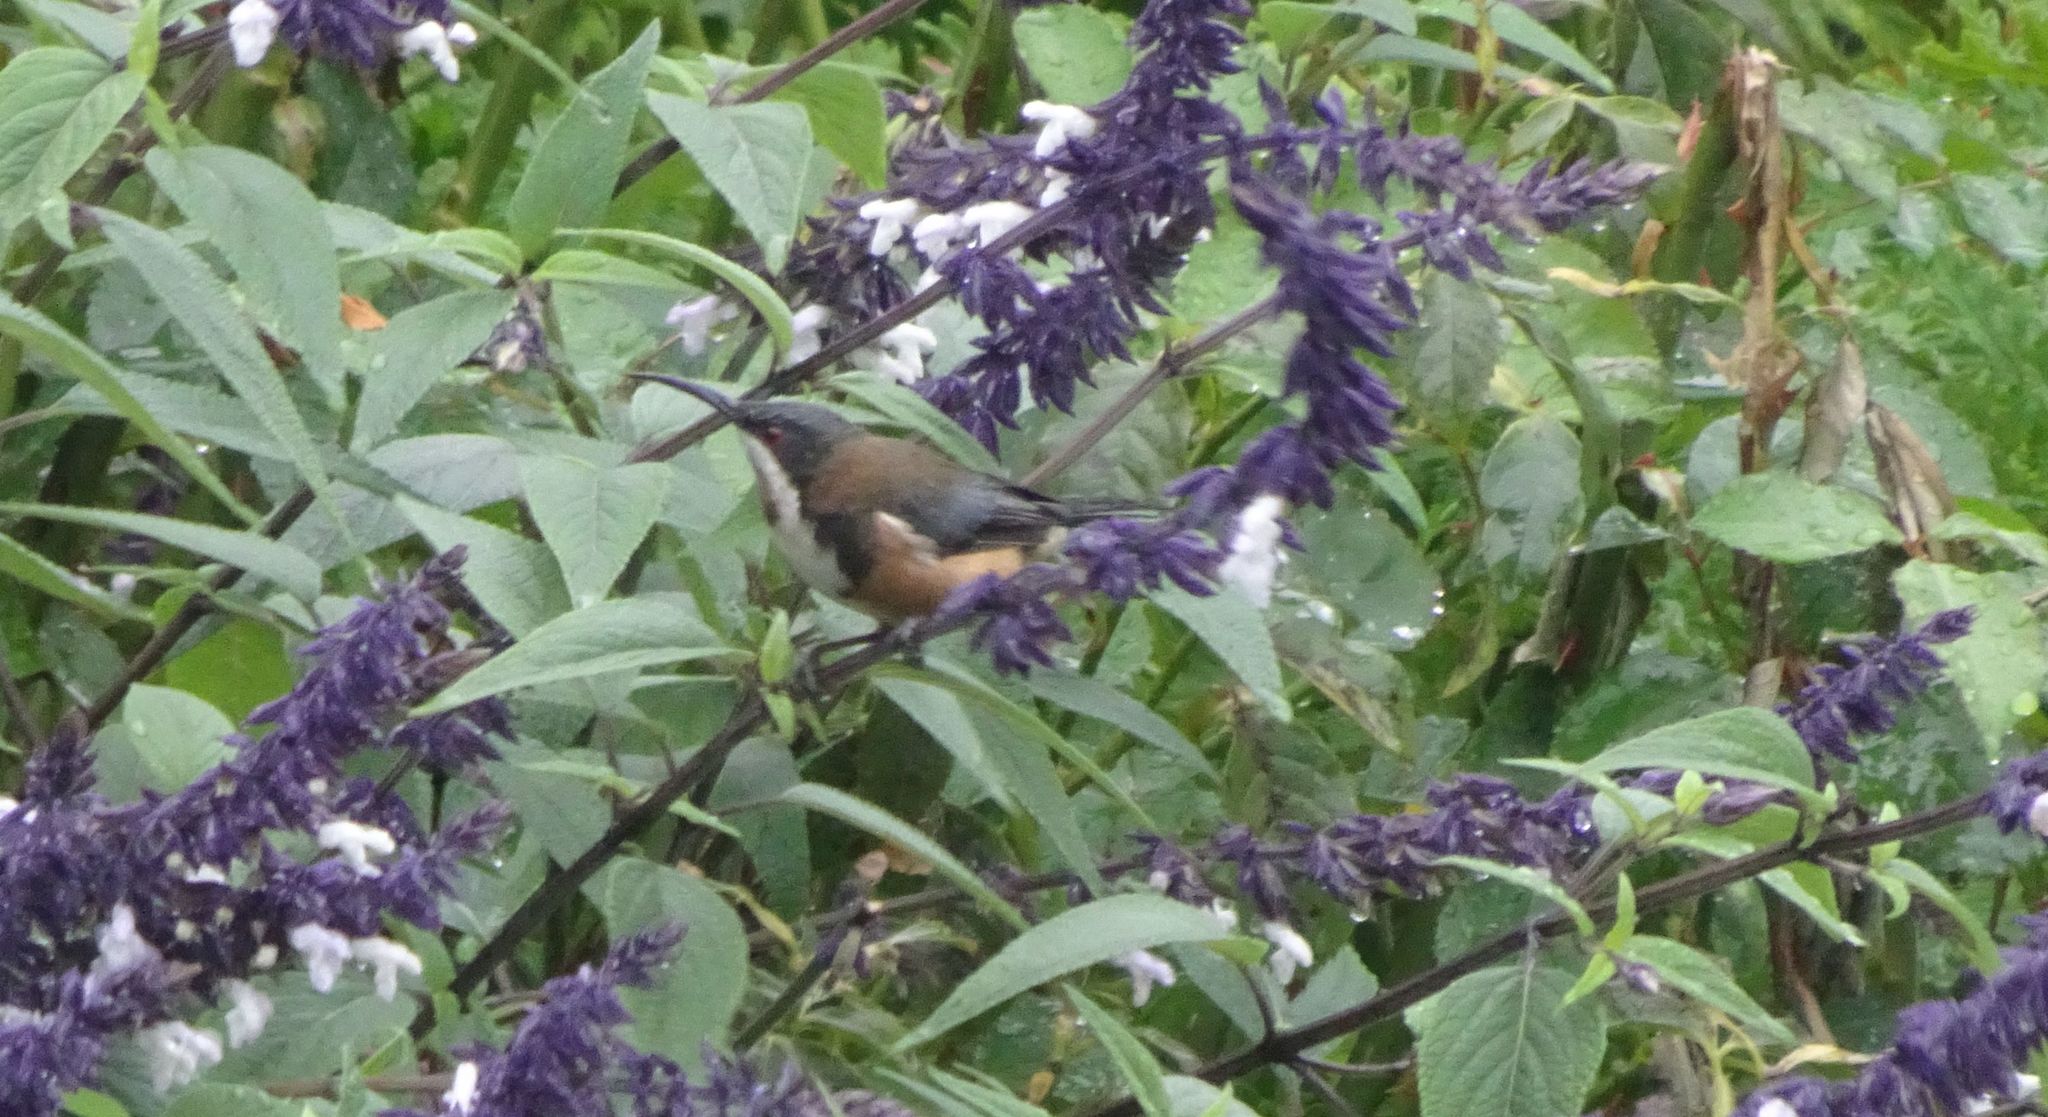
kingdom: Animalia
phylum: Chordata
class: Aves
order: Passeriformes
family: Meliphagidae
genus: Acanthorhynchus
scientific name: Acanthorhynchus tenuirostris
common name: Eastern spinebill
